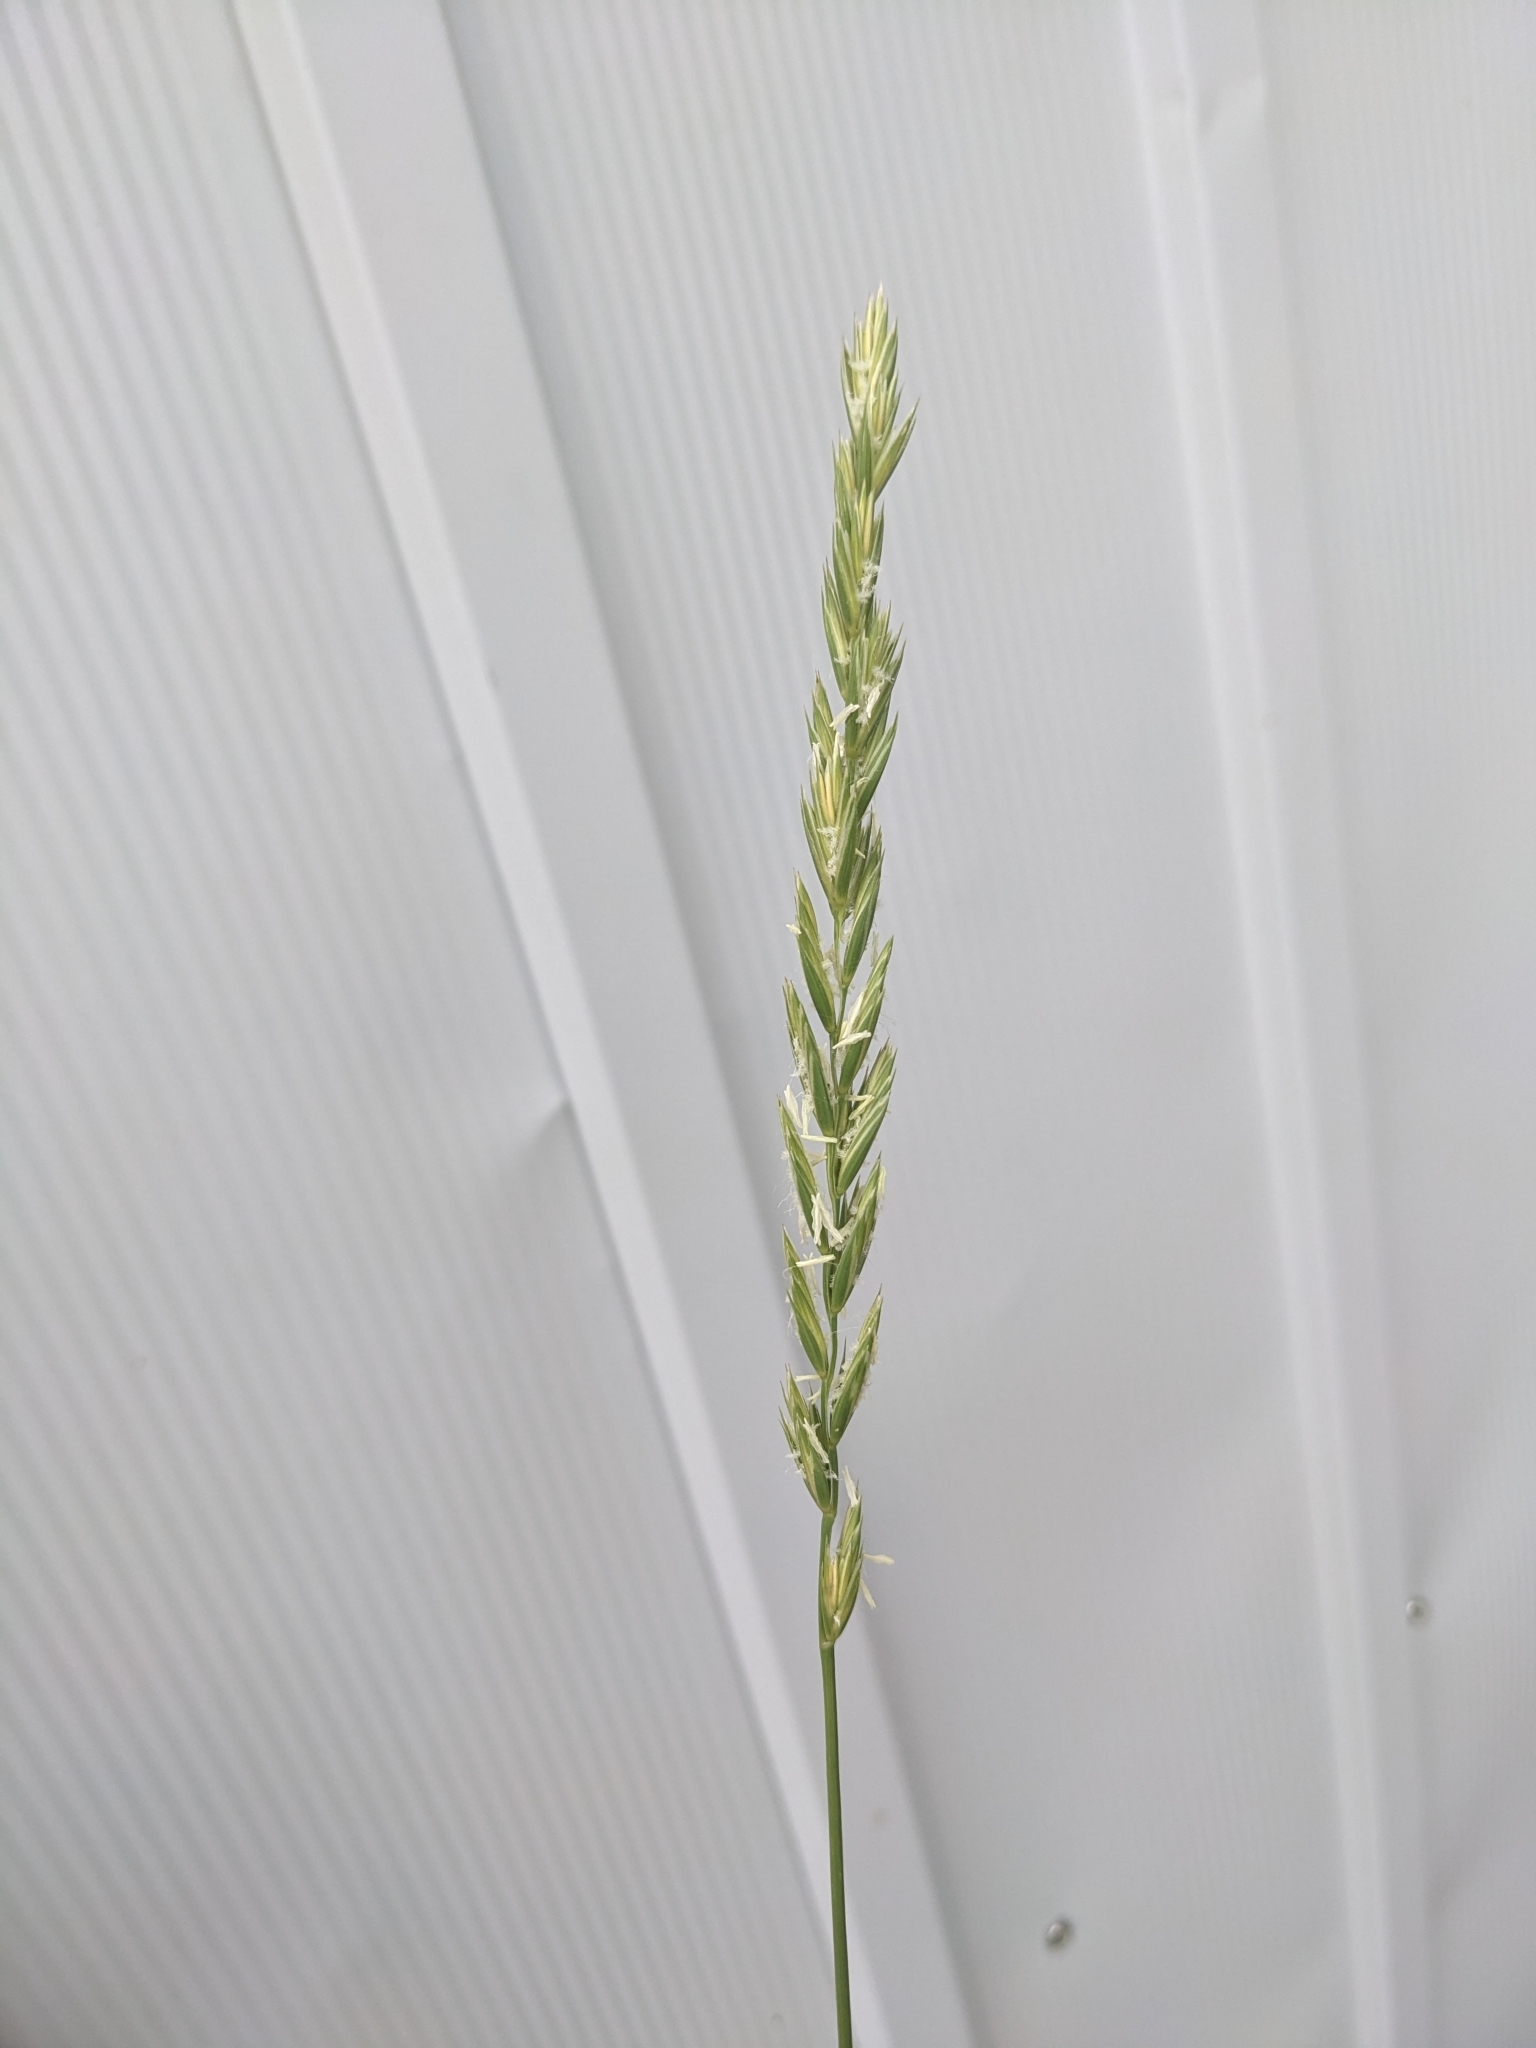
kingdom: Plantae
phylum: Tracheophyta
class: Liliopsida
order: Poales
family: Poaceae
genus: Lolium
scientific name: Lolium perenne
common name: Perennial ryegrass
